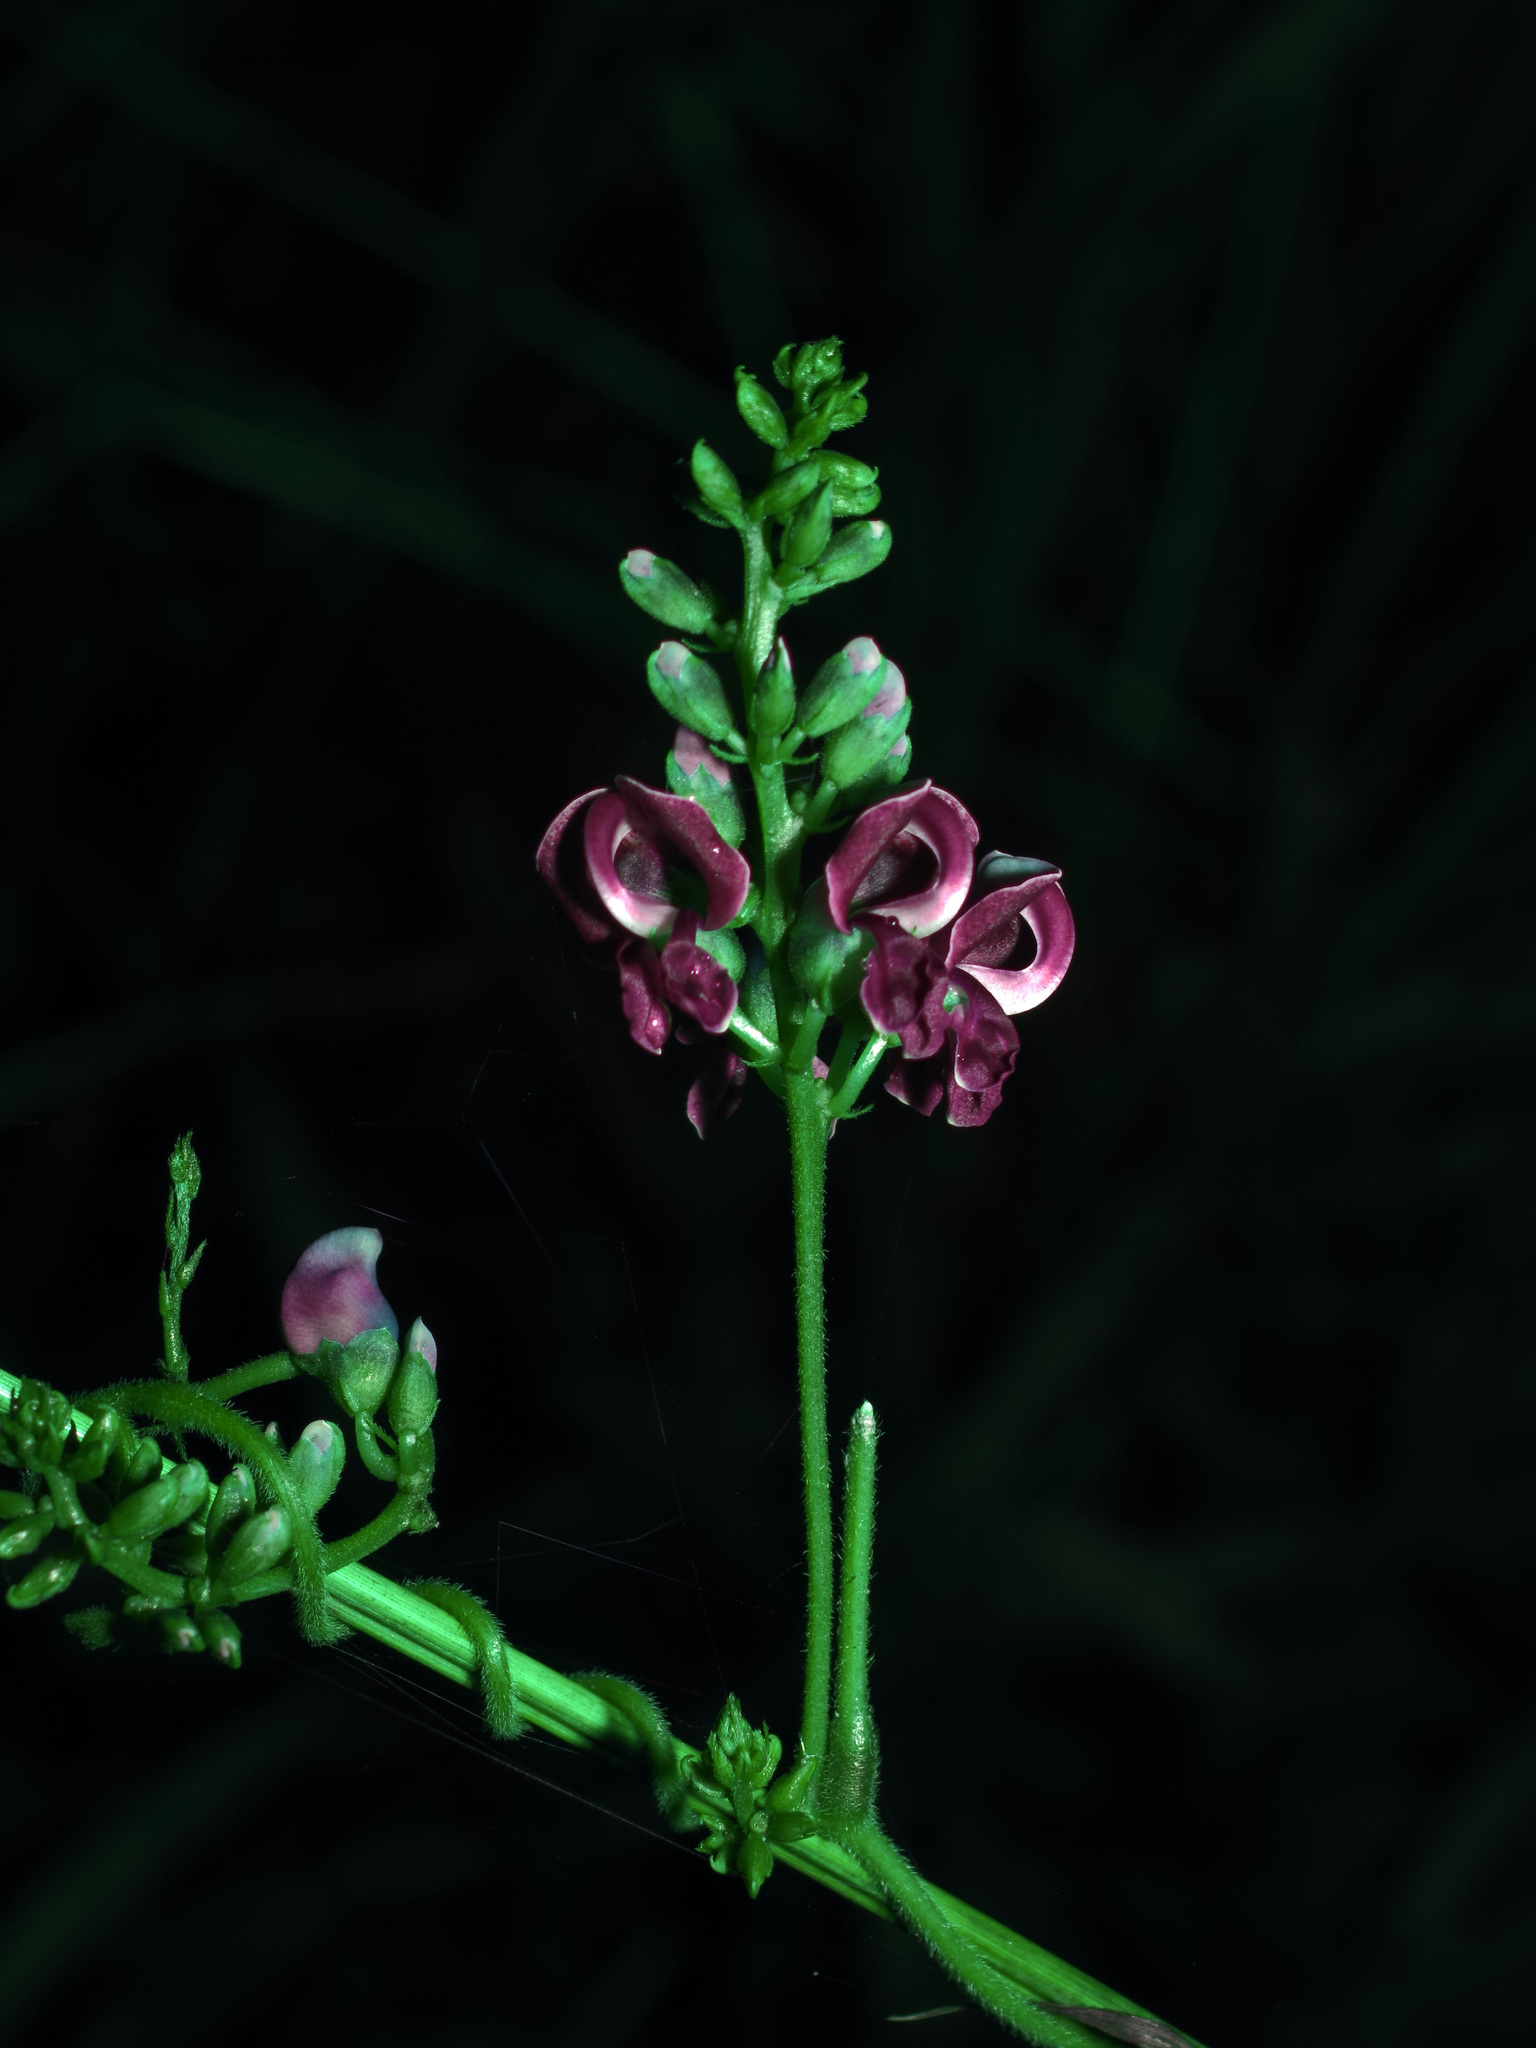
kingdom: Plantae
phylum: Tracheophyta
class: Magnoliopsida
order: Fabales
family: Fabaceae
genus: Apios
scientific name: Apios americana
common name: American potato-bean
